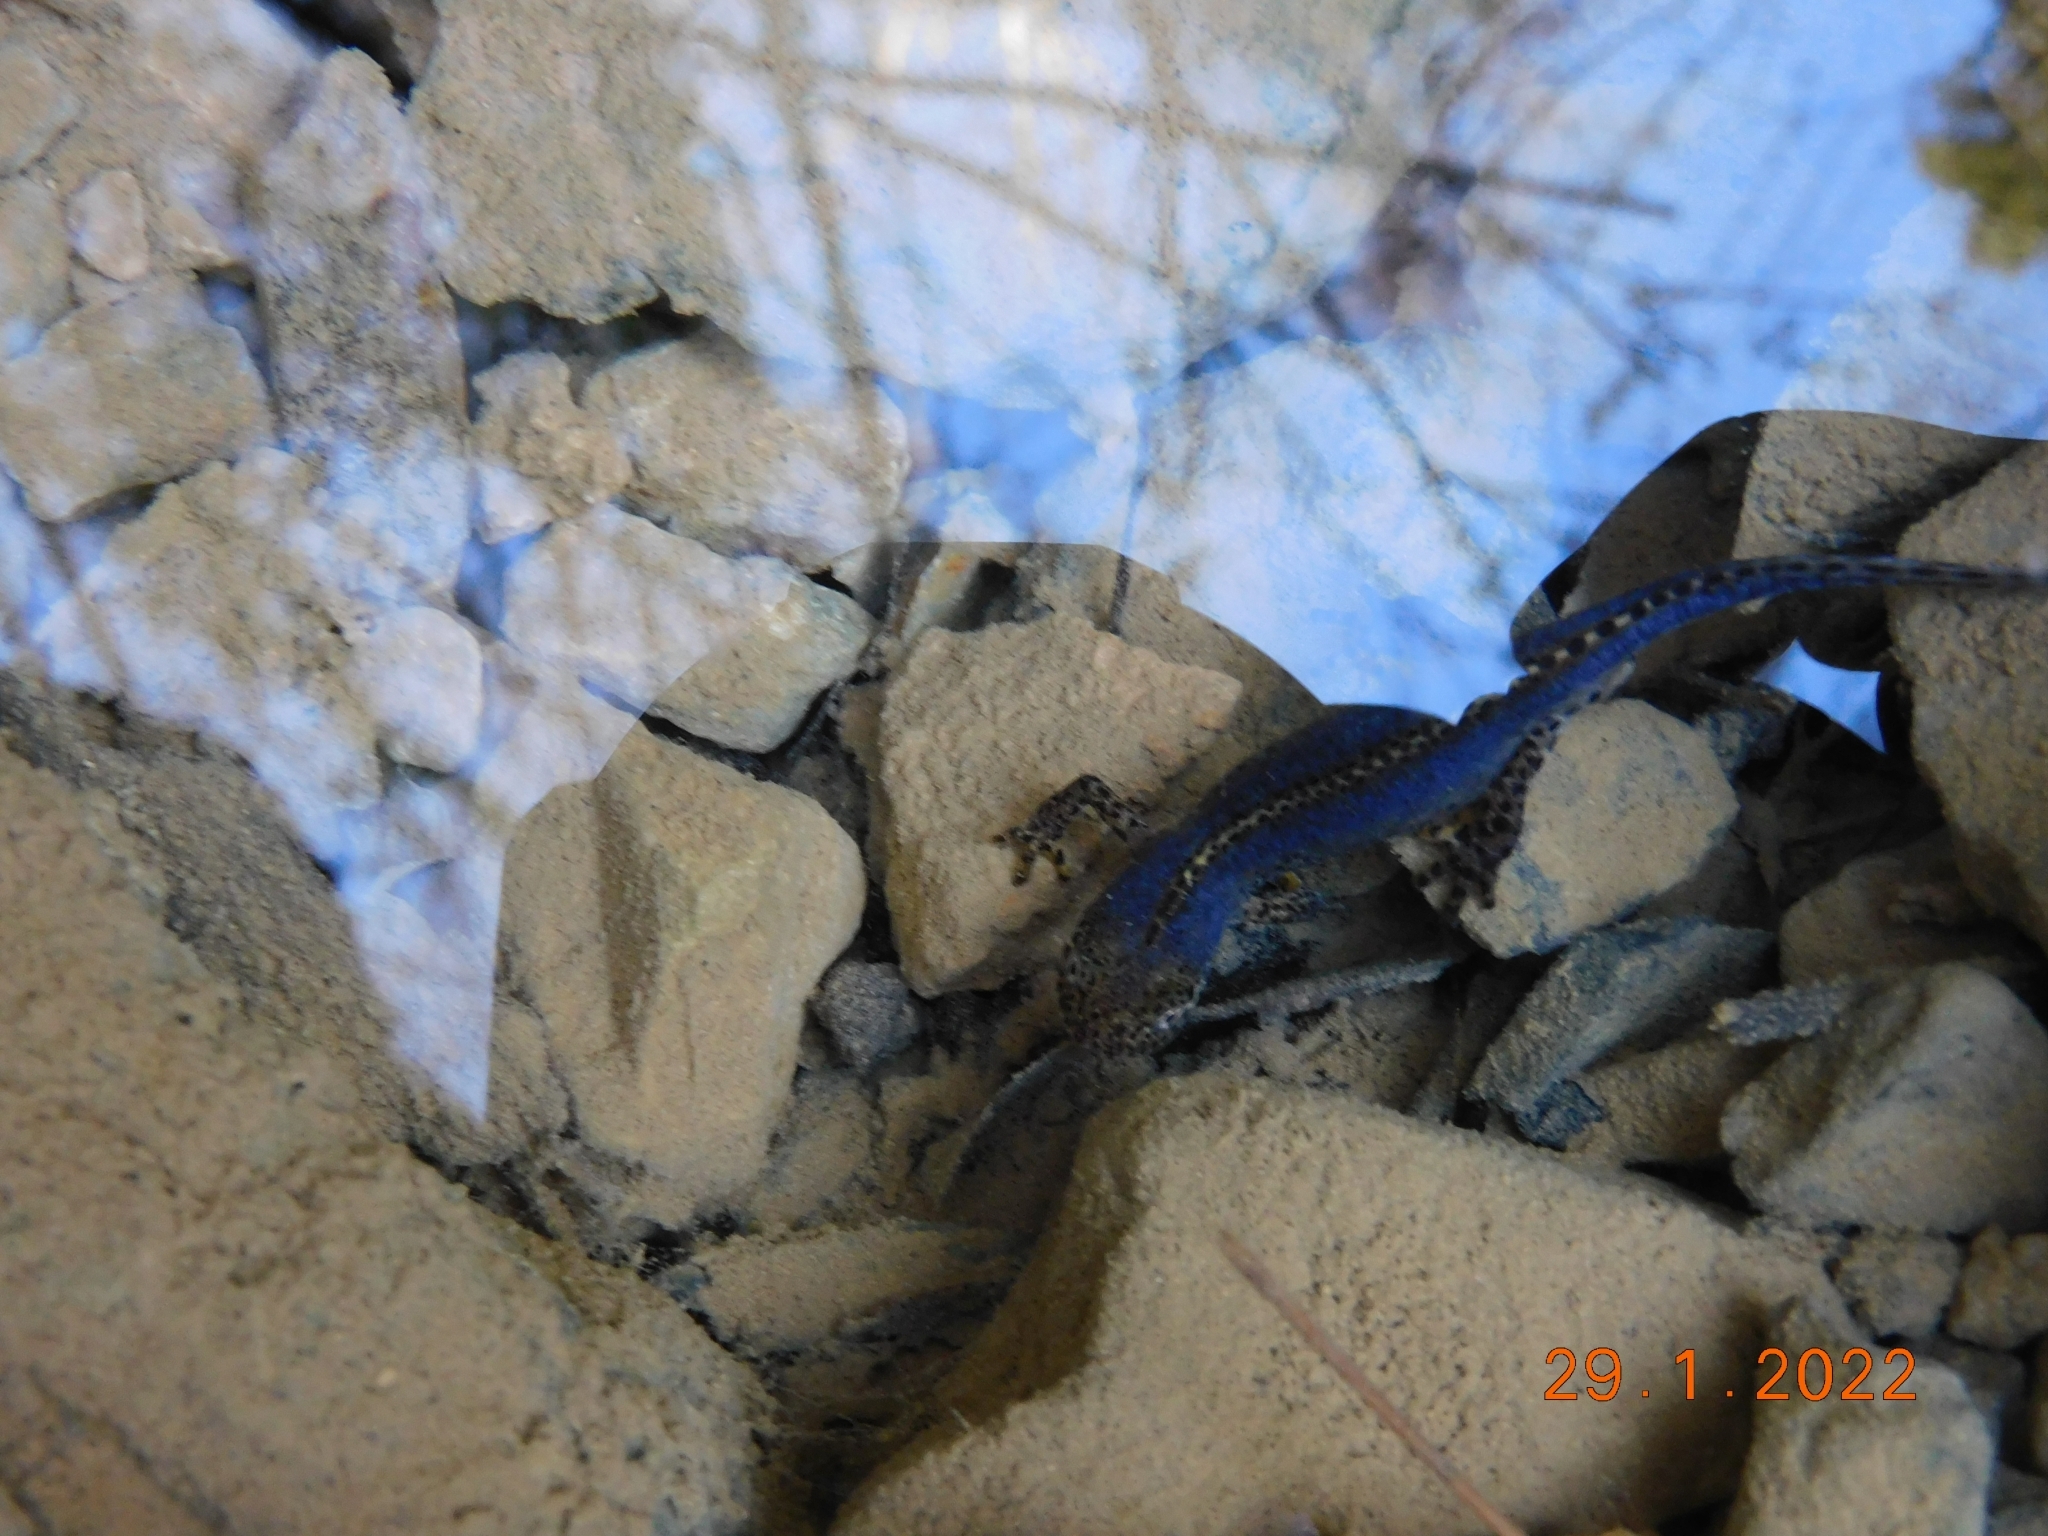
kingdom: Animalia
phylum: Chordata
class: Amphibia
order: Caudata
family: Salamandridae
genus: Ichthyosaura
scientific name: Ichthyosaura alpestris
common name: Alpine newt
